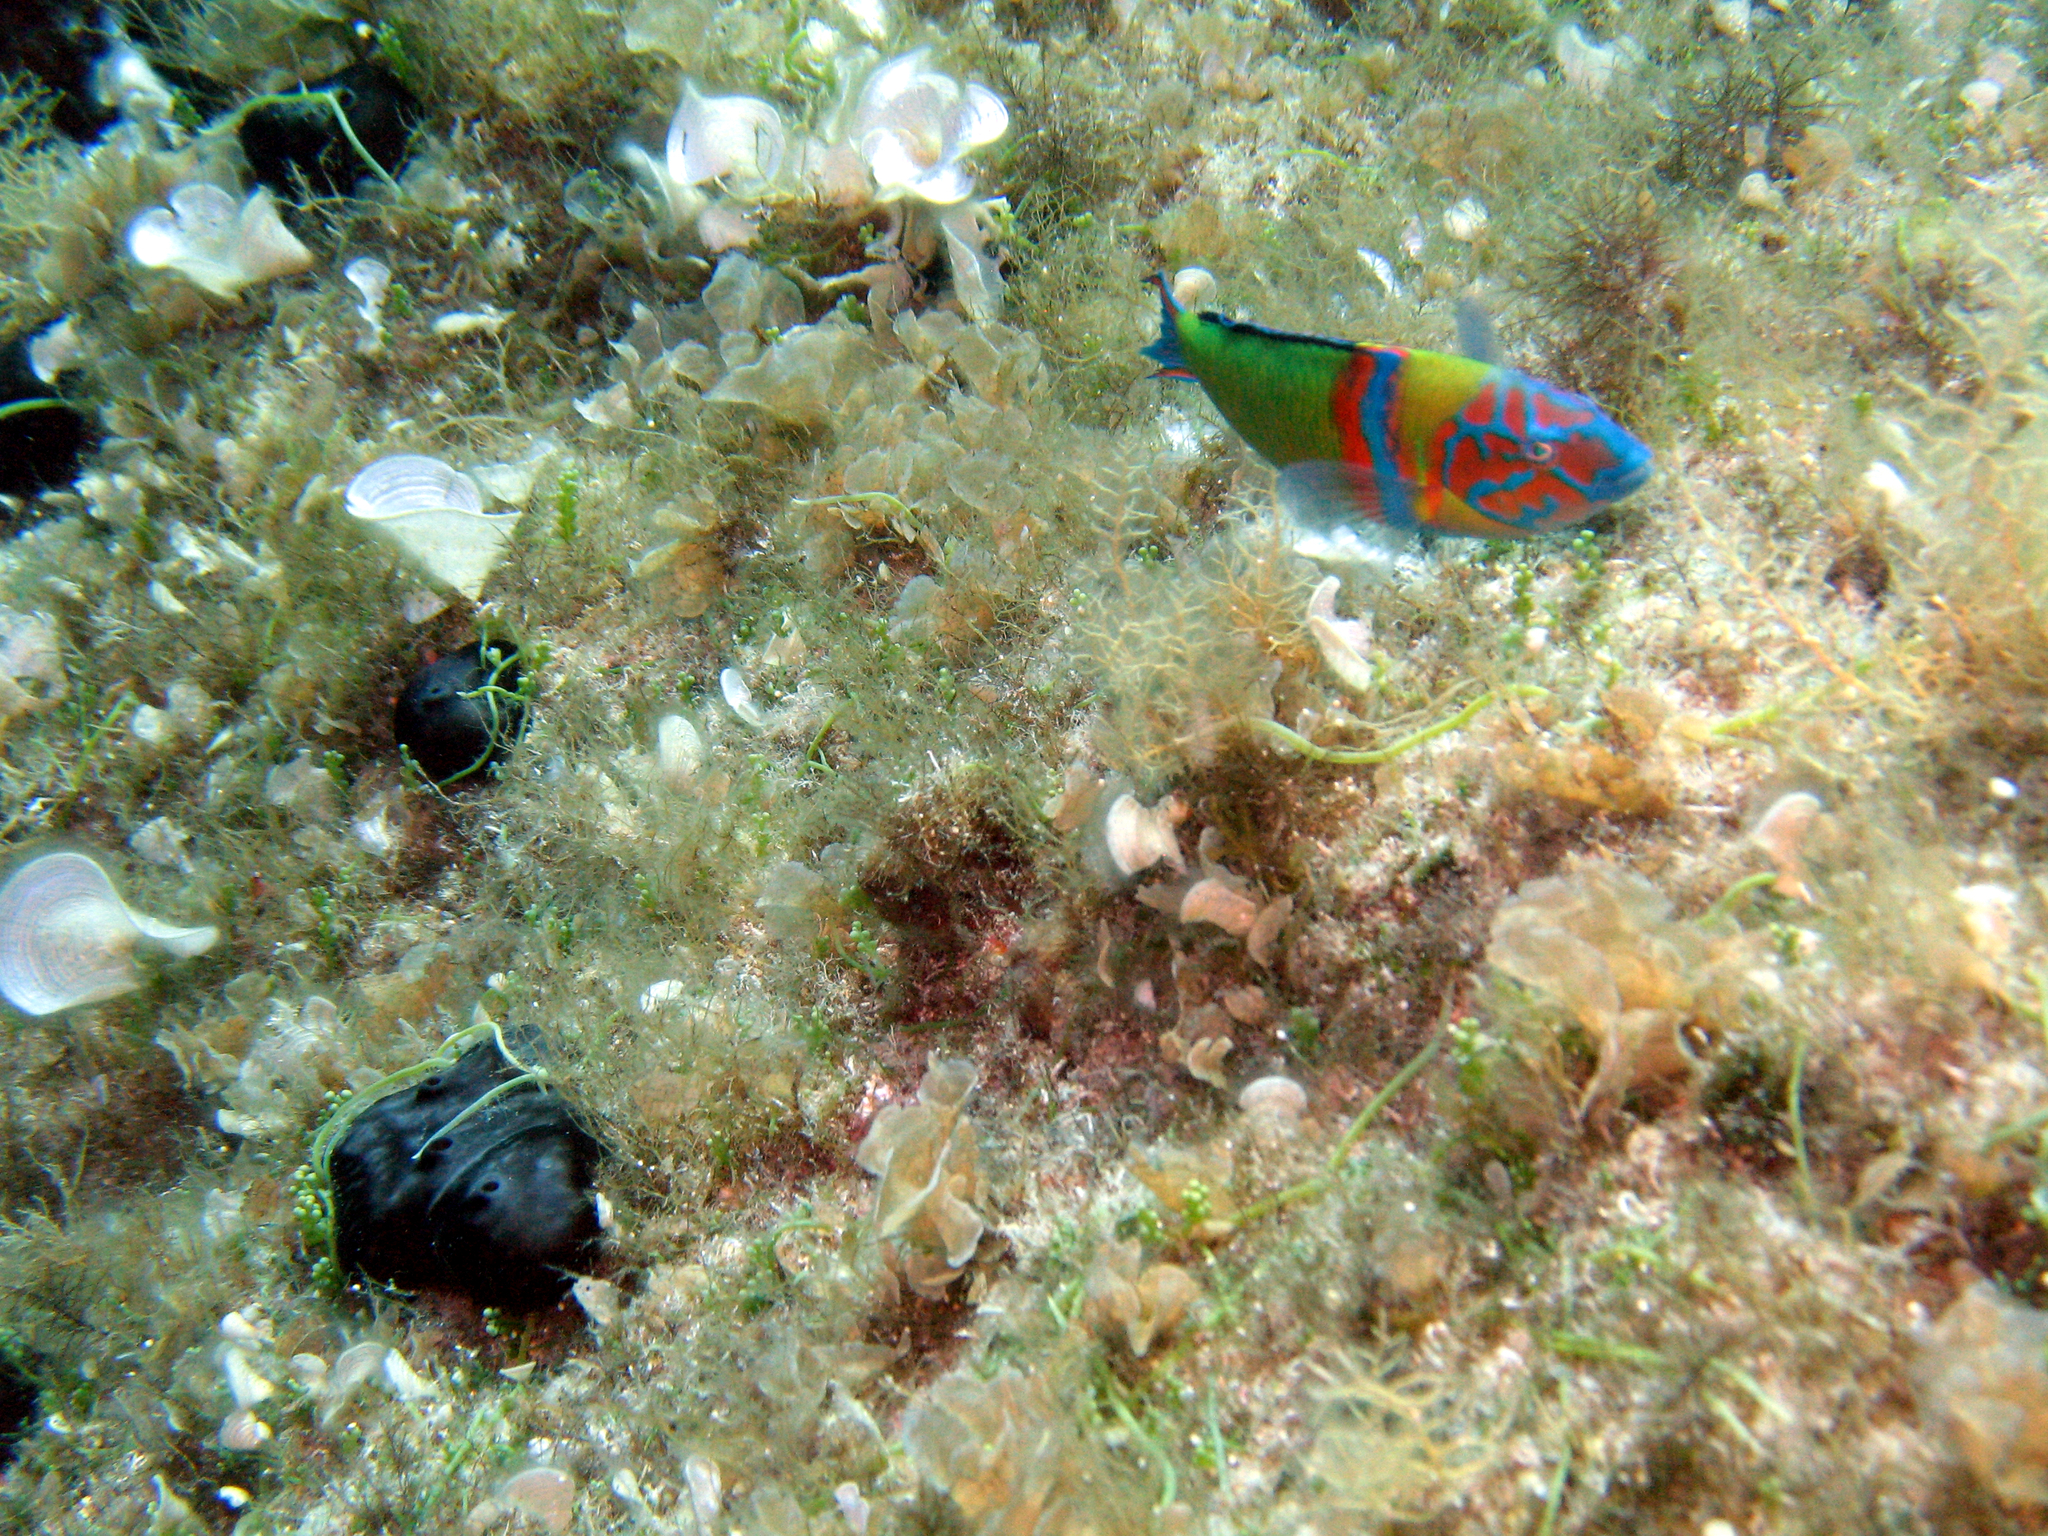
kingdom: Animalia
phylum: Chordata
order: Perciformes
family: Labridae
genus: Thalassoma
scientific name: Thalassoma pavo
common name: Ornate wrasse
